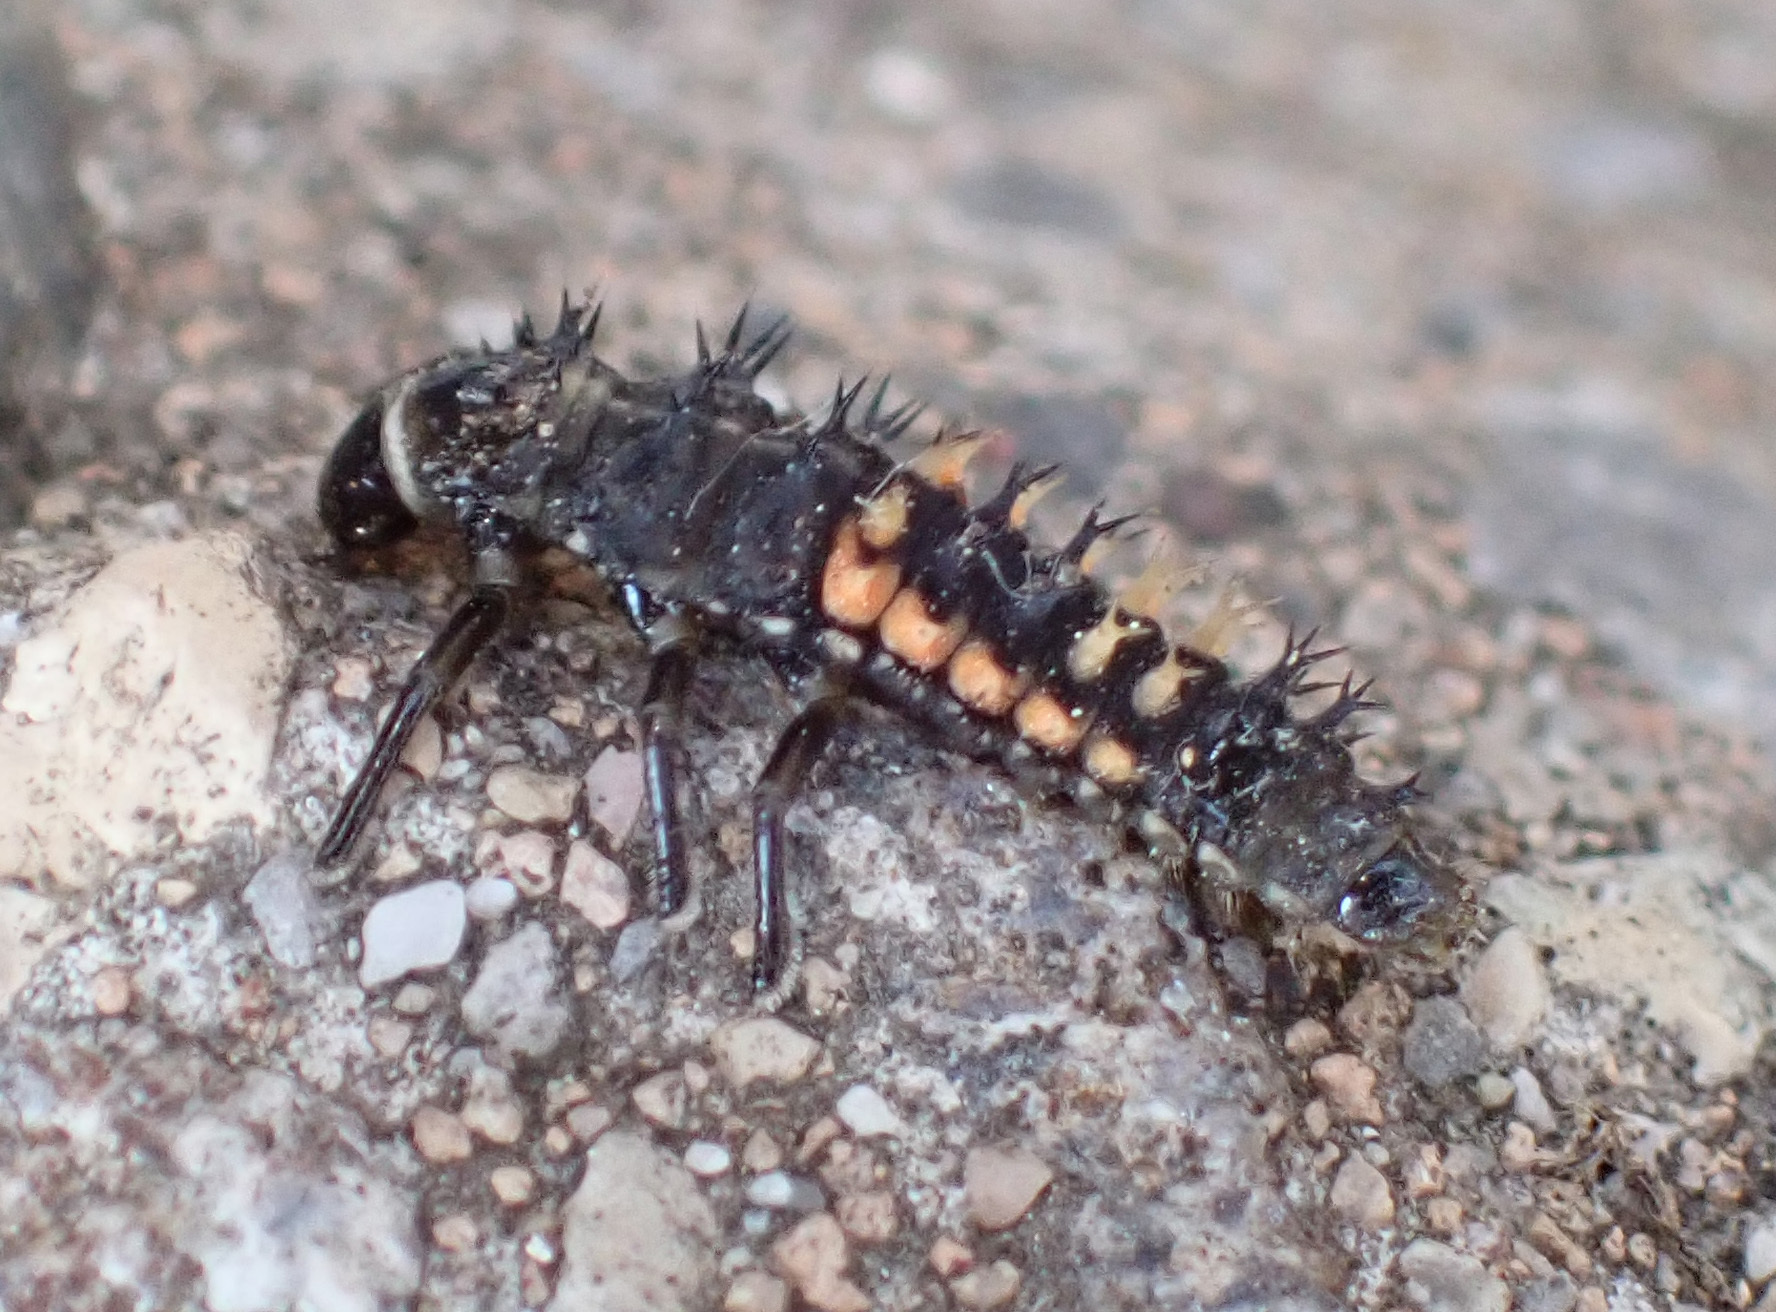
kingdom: Animalia
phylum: Arthropoda
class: Insecta
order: Coleoptera
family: Coccinellidae
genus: Harmonia
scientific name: Harmonia axyridis
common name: Harlequin ladybird
